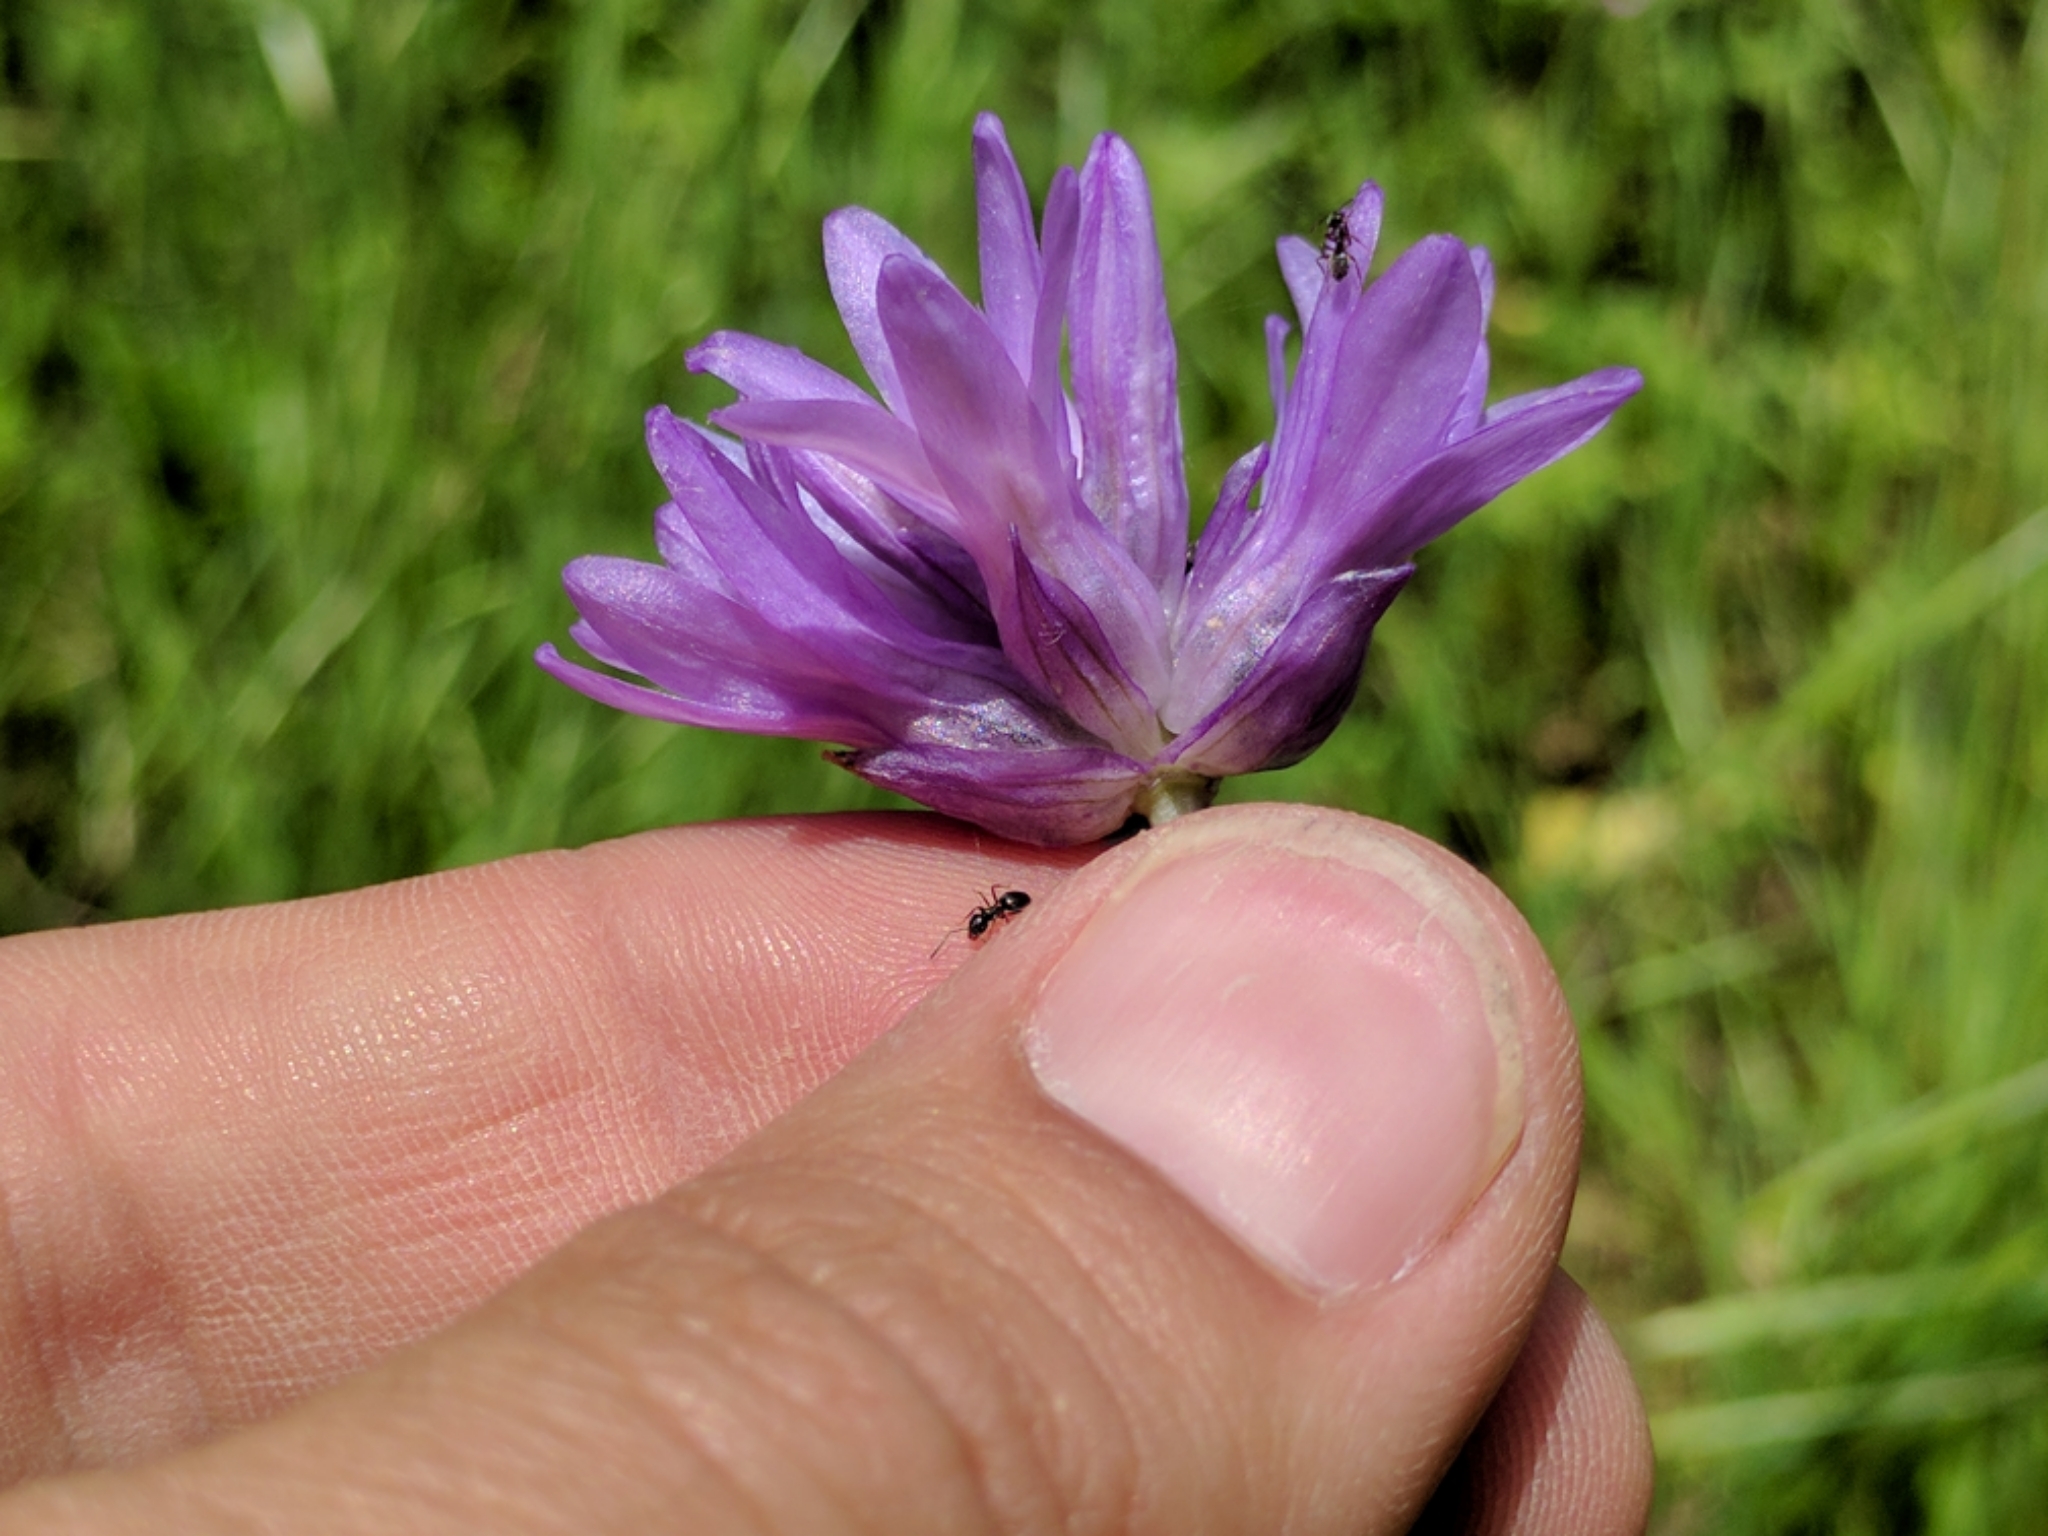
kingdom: Plantae
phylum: Tracheophyta
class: Liliopsida
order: Asparagales
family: Asparagaceae
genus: Dichelostemma
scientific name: Dichelostemma congestum
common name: Fork-tooth ookow
